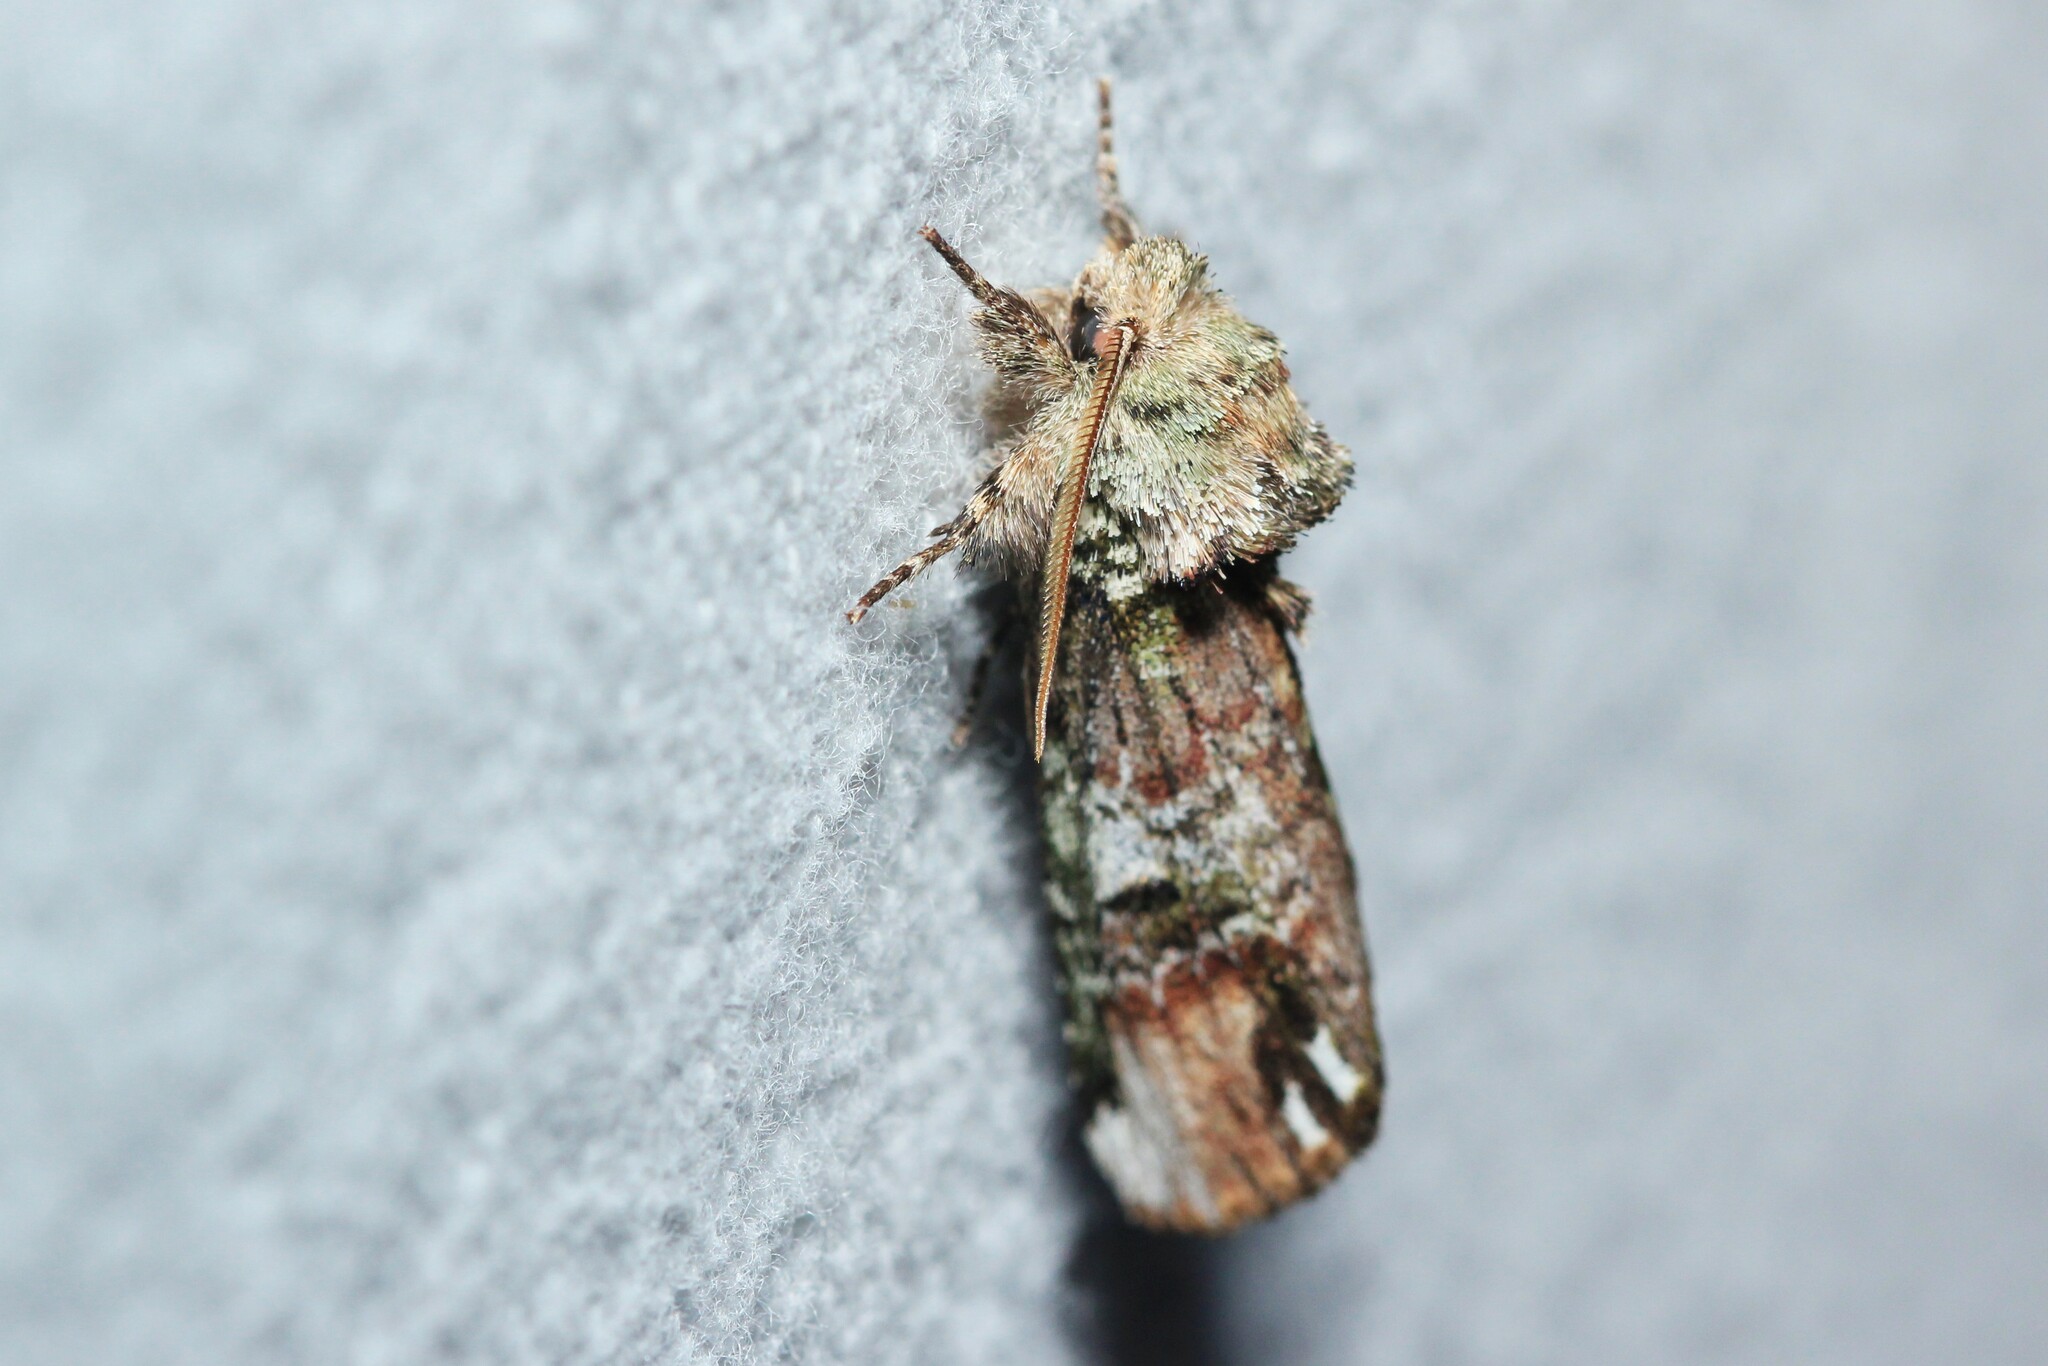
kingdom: Animalia
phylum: Arthropoda
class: Insecta
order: Lepidoptera
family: Notodontidae
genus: Schizura
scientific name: Schizura
